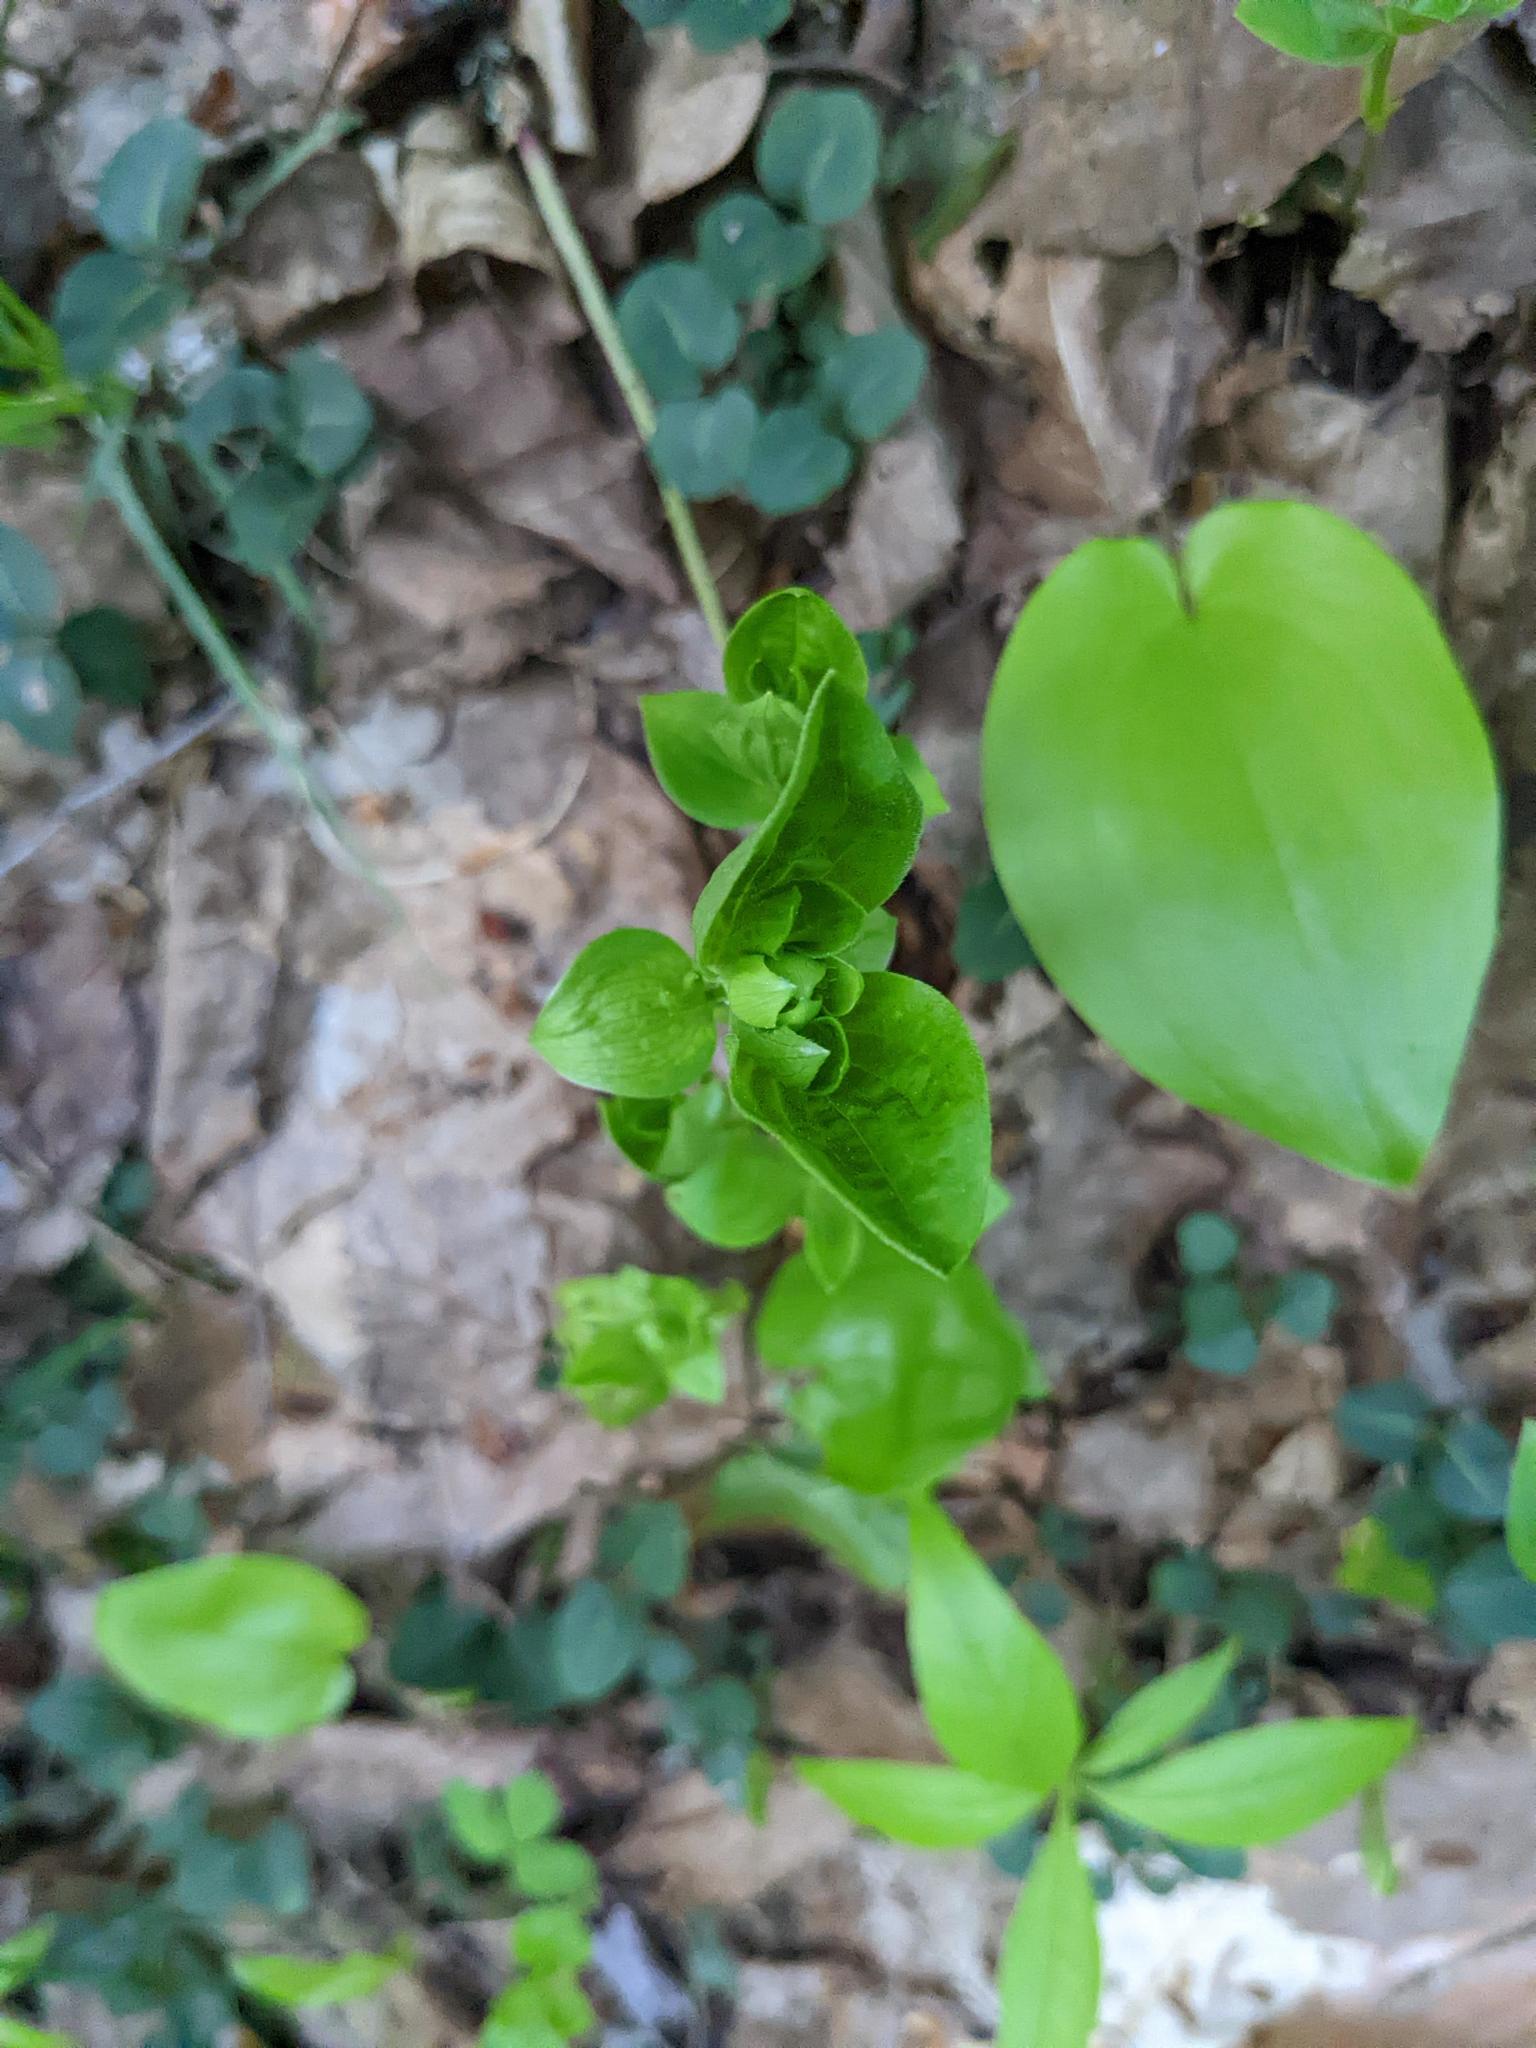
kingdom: Plantae
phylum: Tracheophyta
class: Magnoliopsida
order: Cornales
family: Cornaceae
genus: Cornus
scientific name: Cornus canadensis
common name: Creeping dogwood
